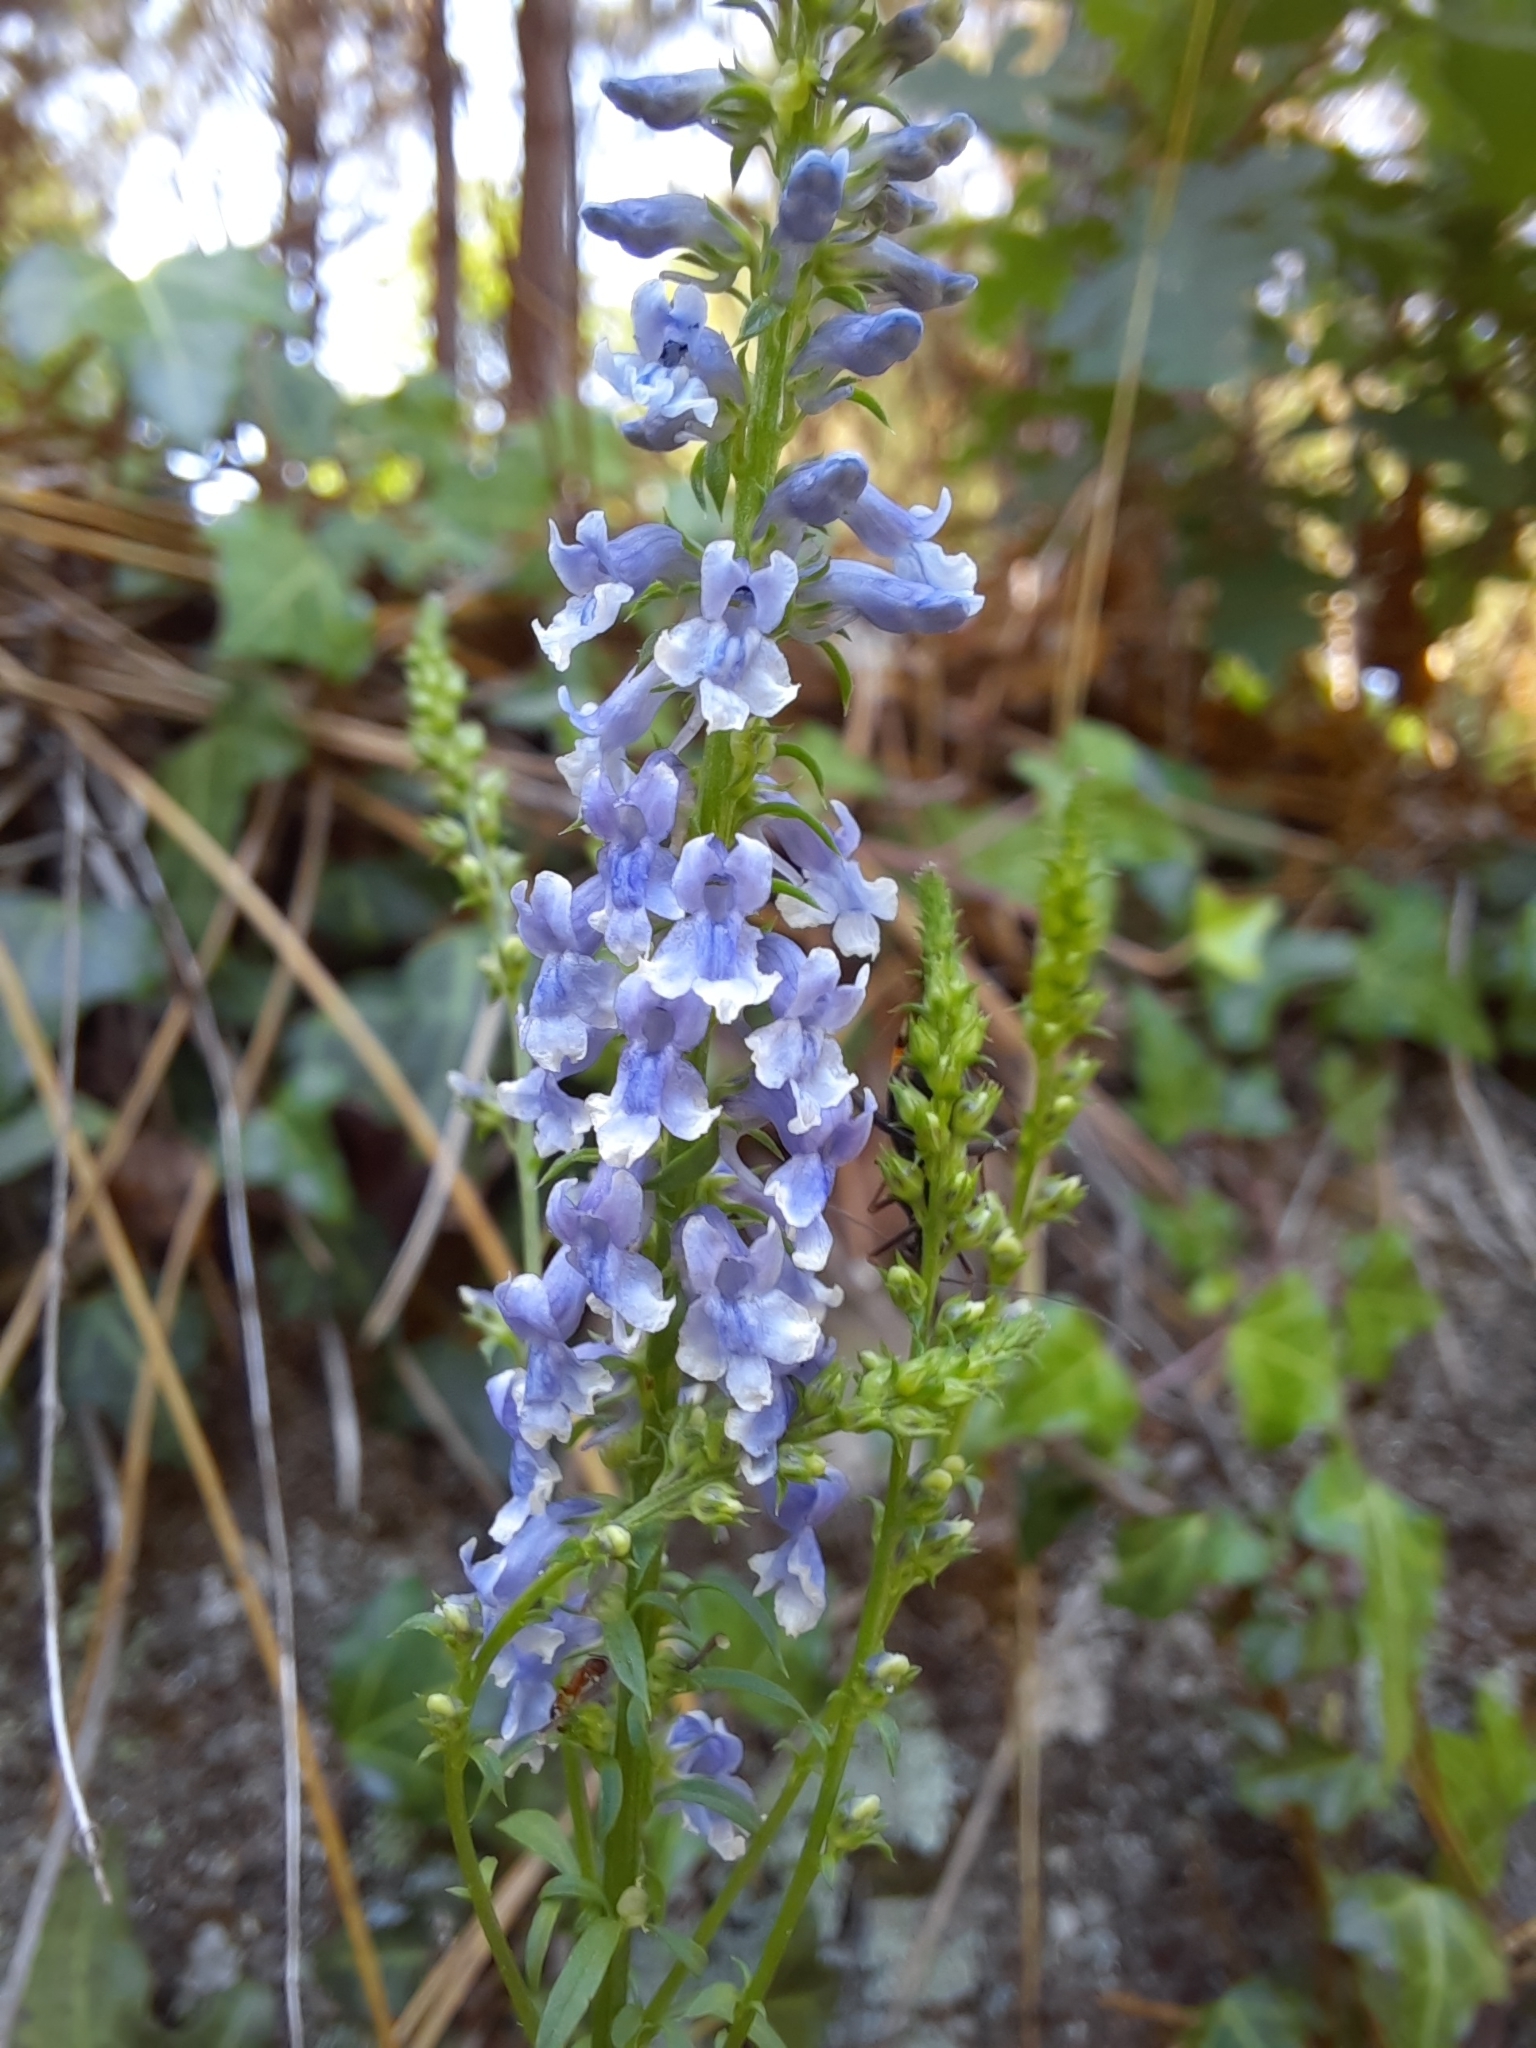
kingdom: Plantae
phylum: Tracheophyta
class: Magnoliopsida
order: Lamiales
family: Plantaginaceae
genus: Anarrhinum
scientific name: Anarrhinum bellidifolium
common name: Daisy-leaved toadflax
